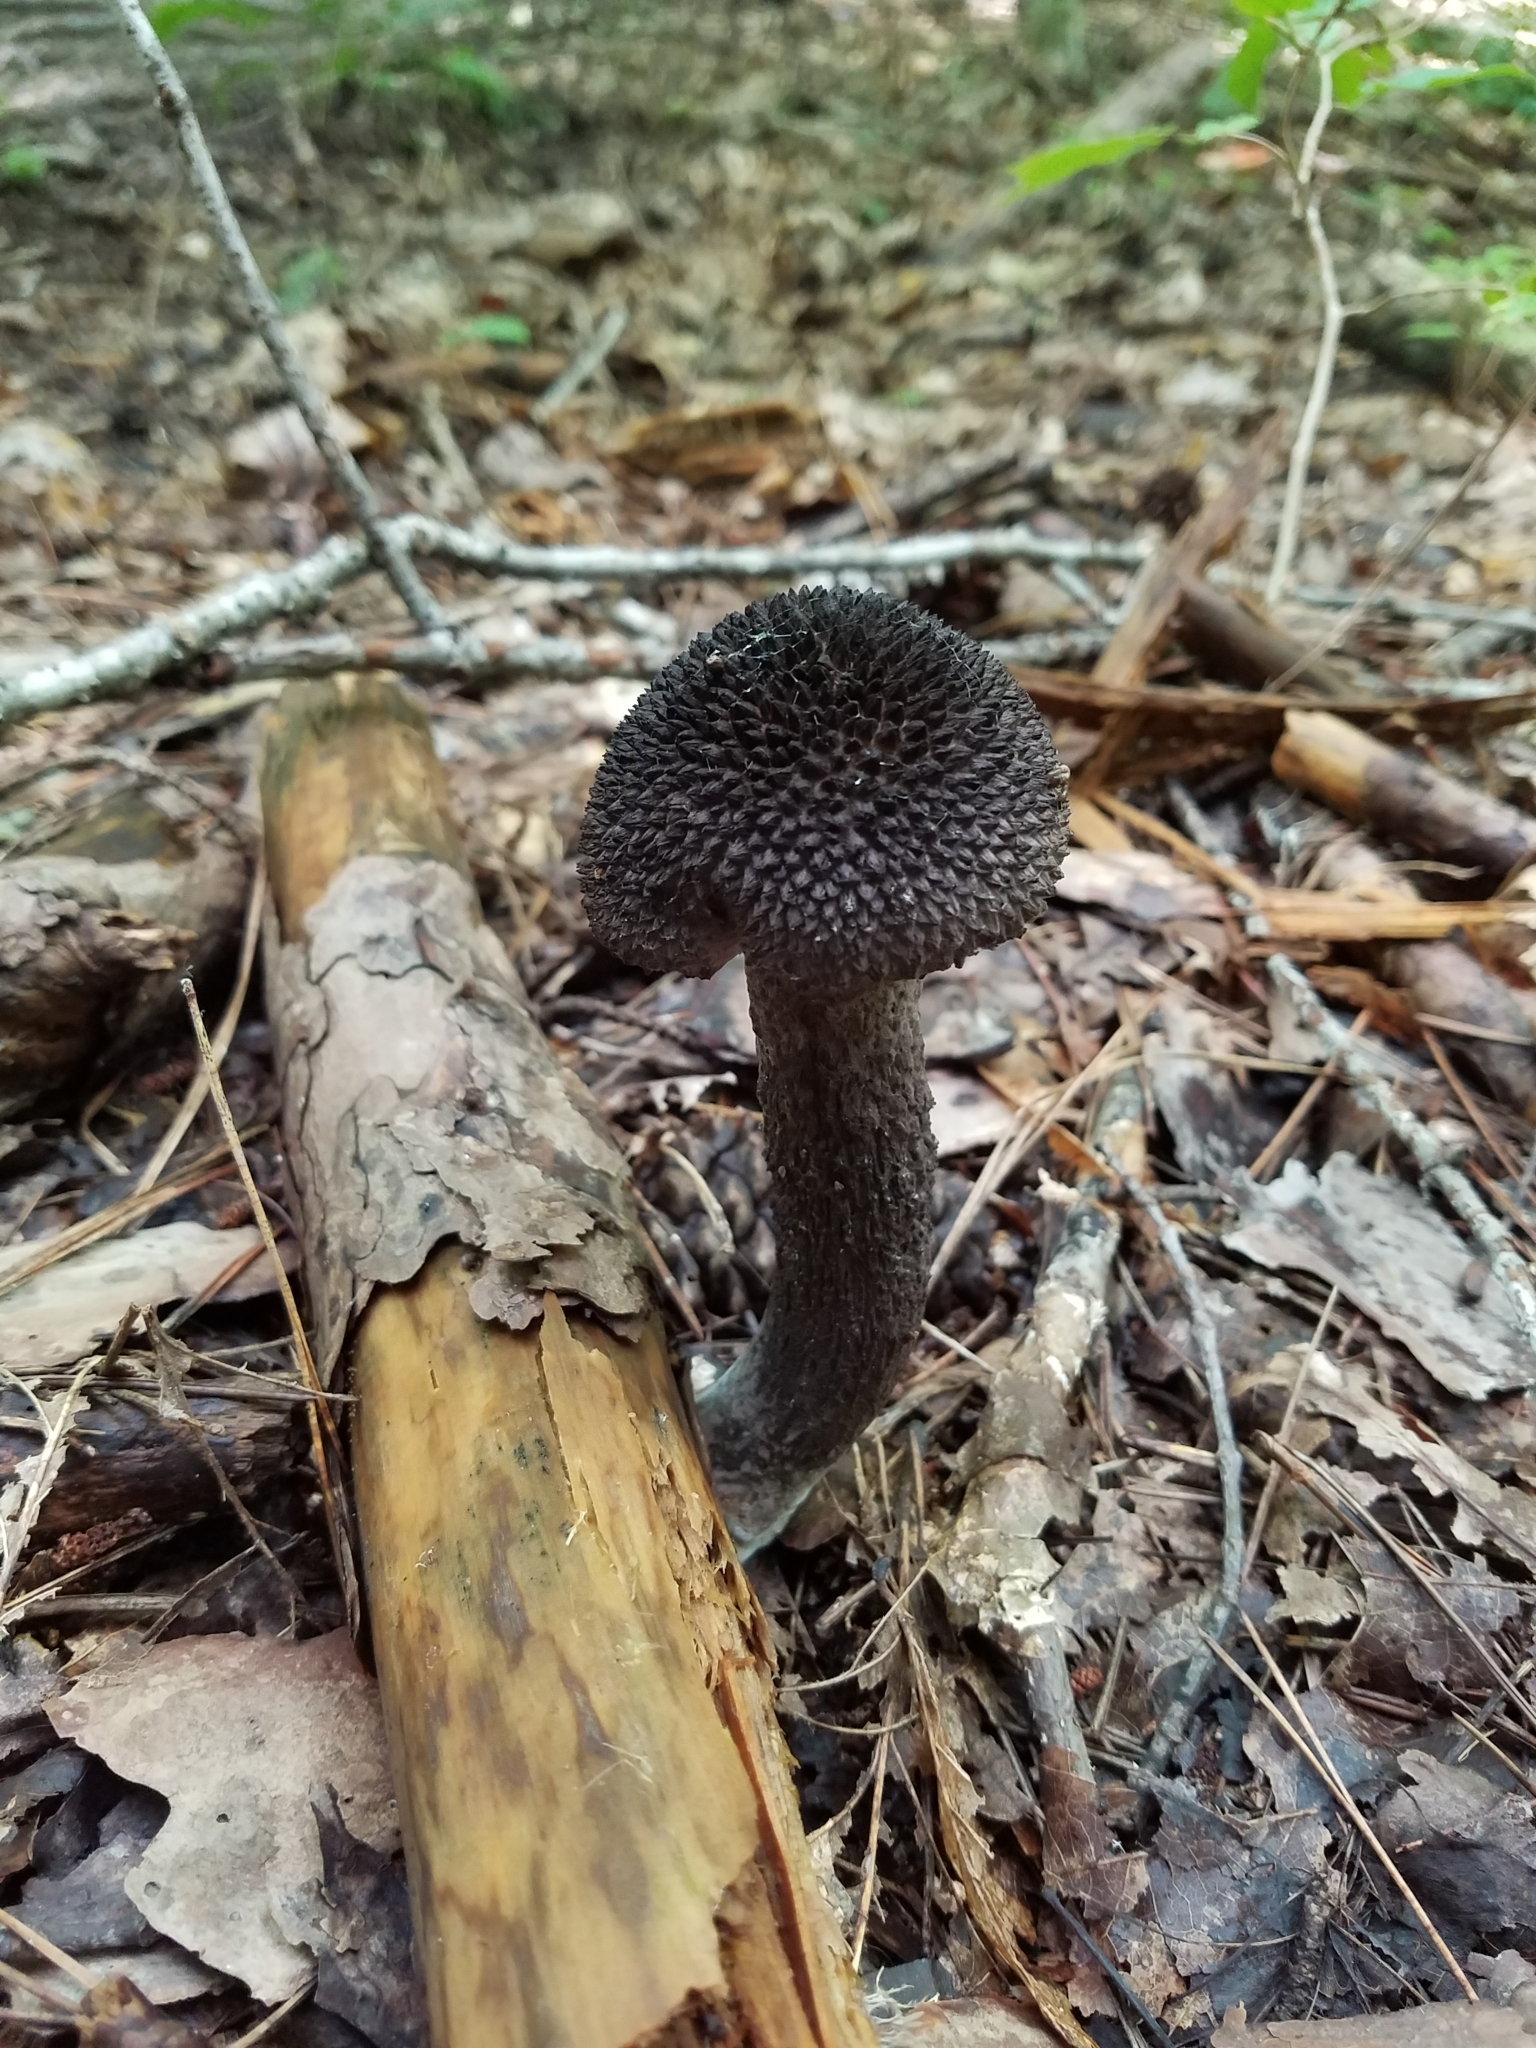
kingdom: Fungi
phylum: Basidiomycota
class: Agaricomycetes
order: Boletales
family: Boletaceae
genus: Strobilomyces
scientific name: Strobilomyces strobilaceus
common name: Old man of the woods
